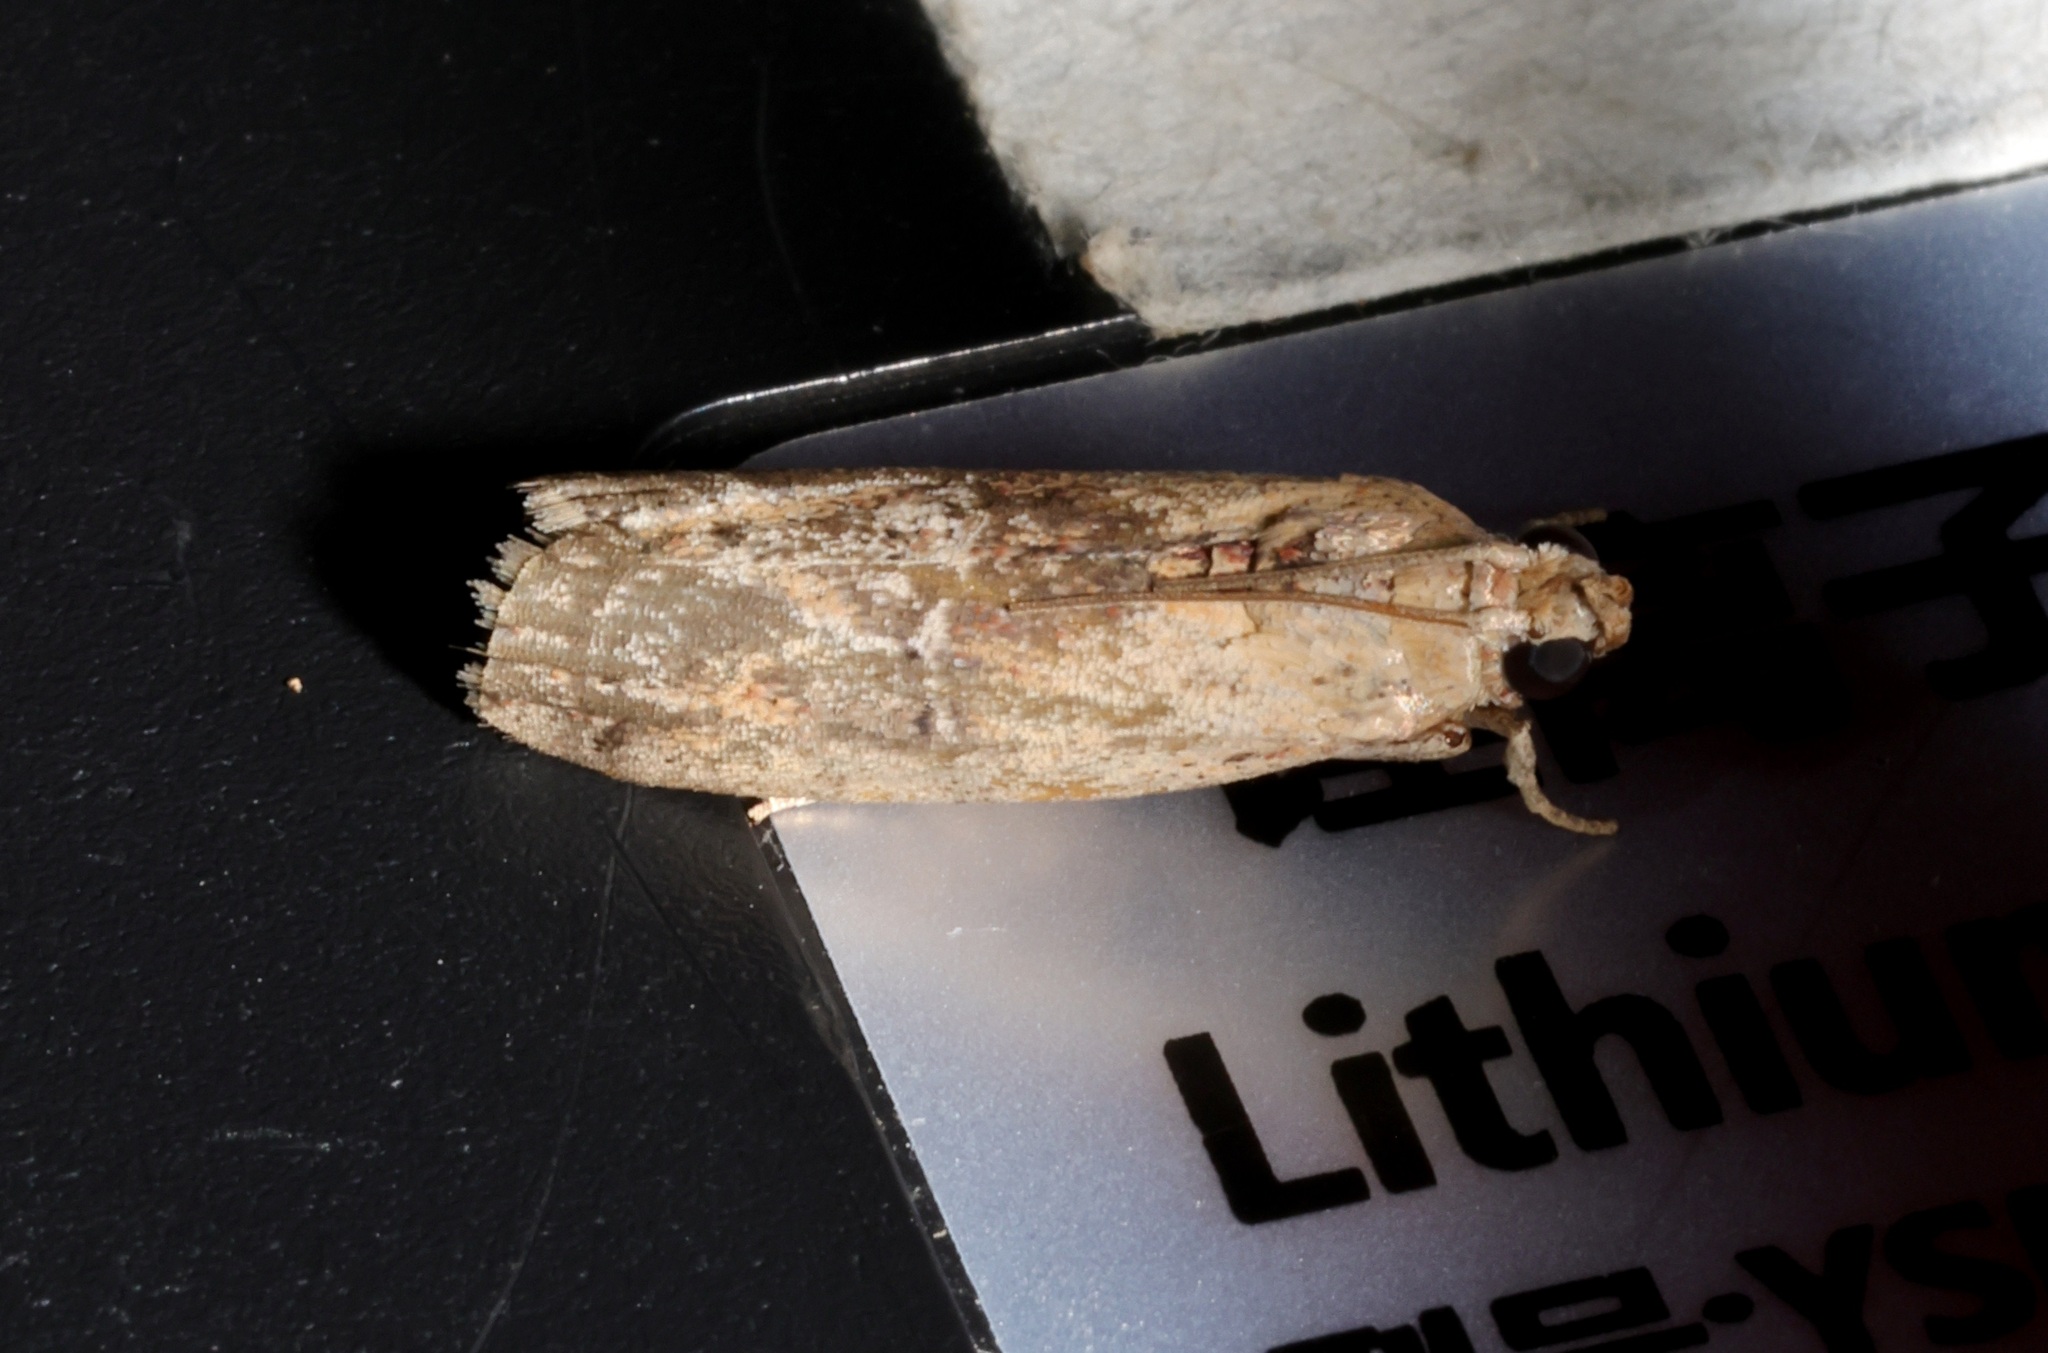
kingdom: Animalia
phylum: Arthropoda
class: Insecta
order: Lepidoptera
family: Pyralidae
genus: Nephopterix
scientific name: Nephopterix ochribasalis
